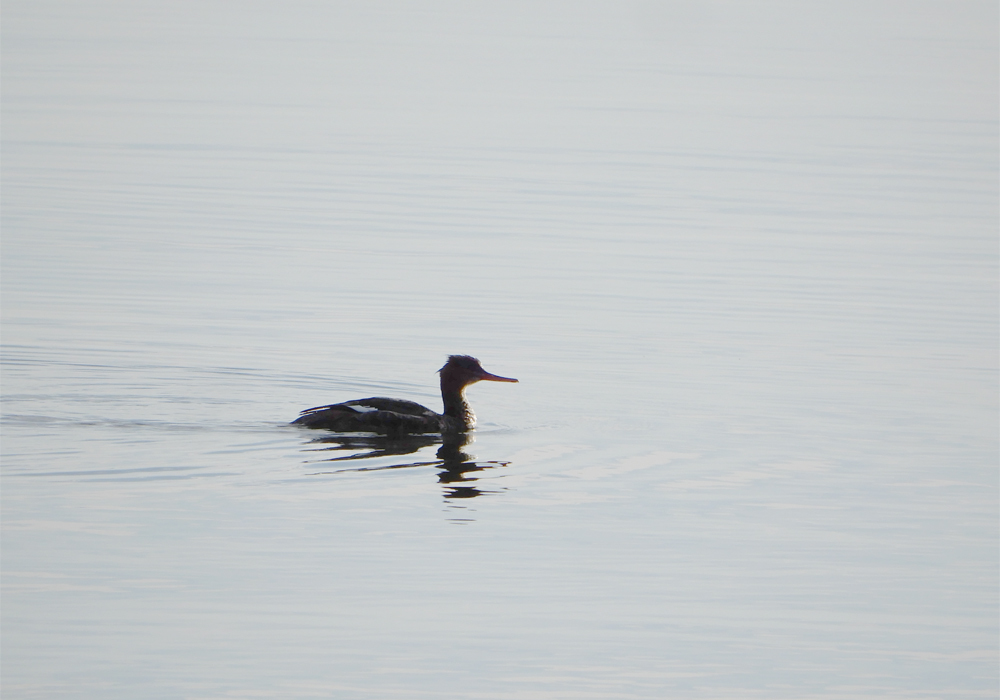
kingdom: Animalia
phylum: Chordata
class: Aves
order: Anseriformes
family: Anatidae
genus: Mergus
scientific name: Mergus serrator
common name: Red-breasted merganser
